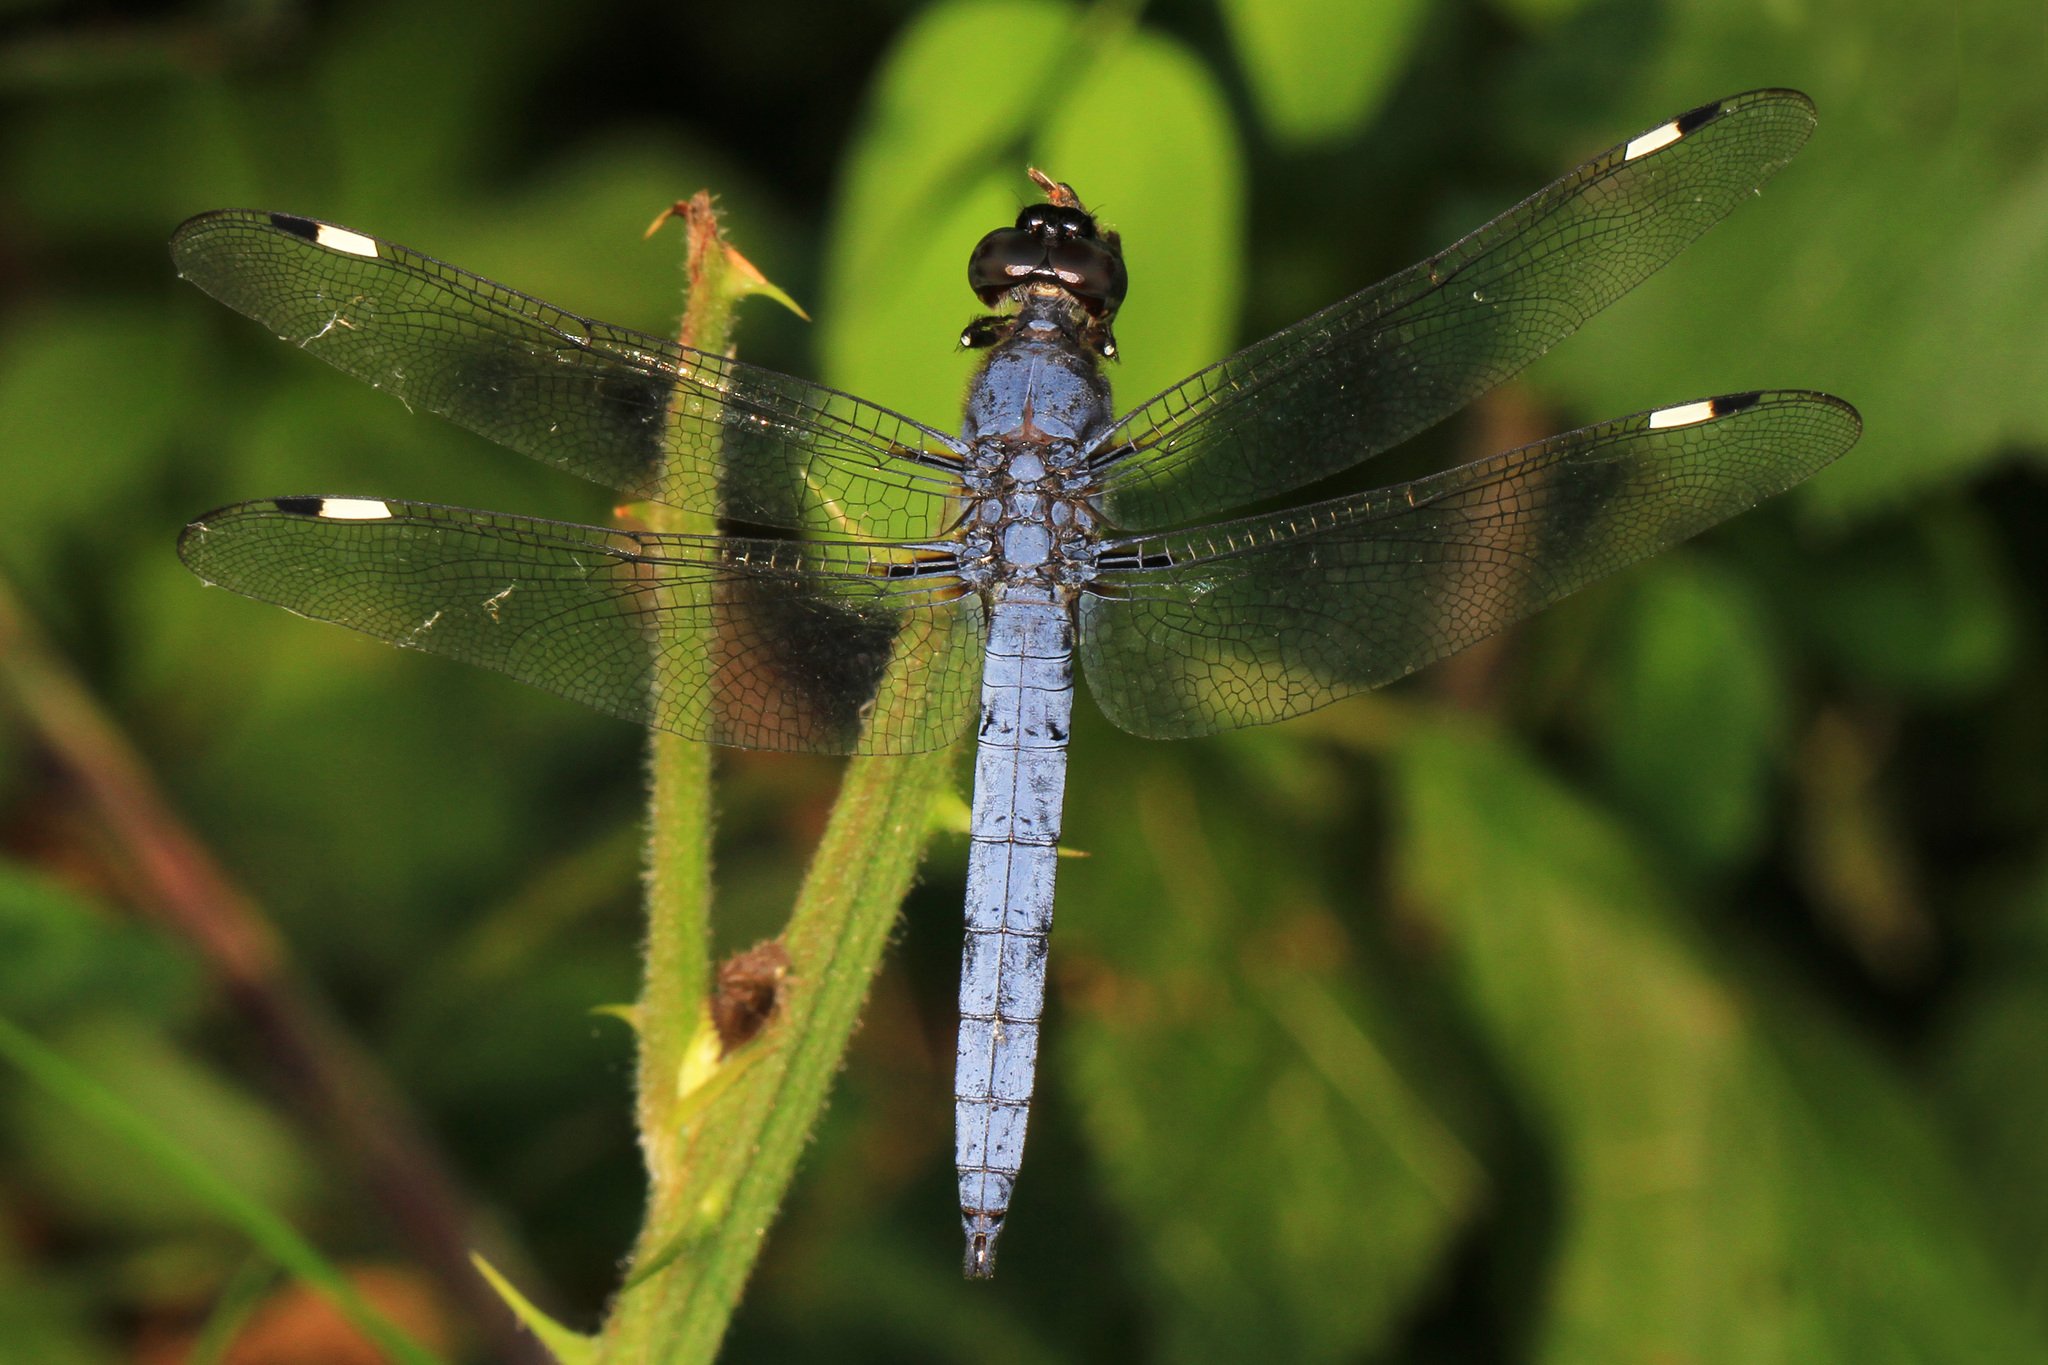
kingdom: Animalia
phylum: Arthropoda
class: Insecta
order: Odonata
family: Libellulidae
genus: Libellula
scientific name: Libellula cyanea
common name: Spangled skimmer
